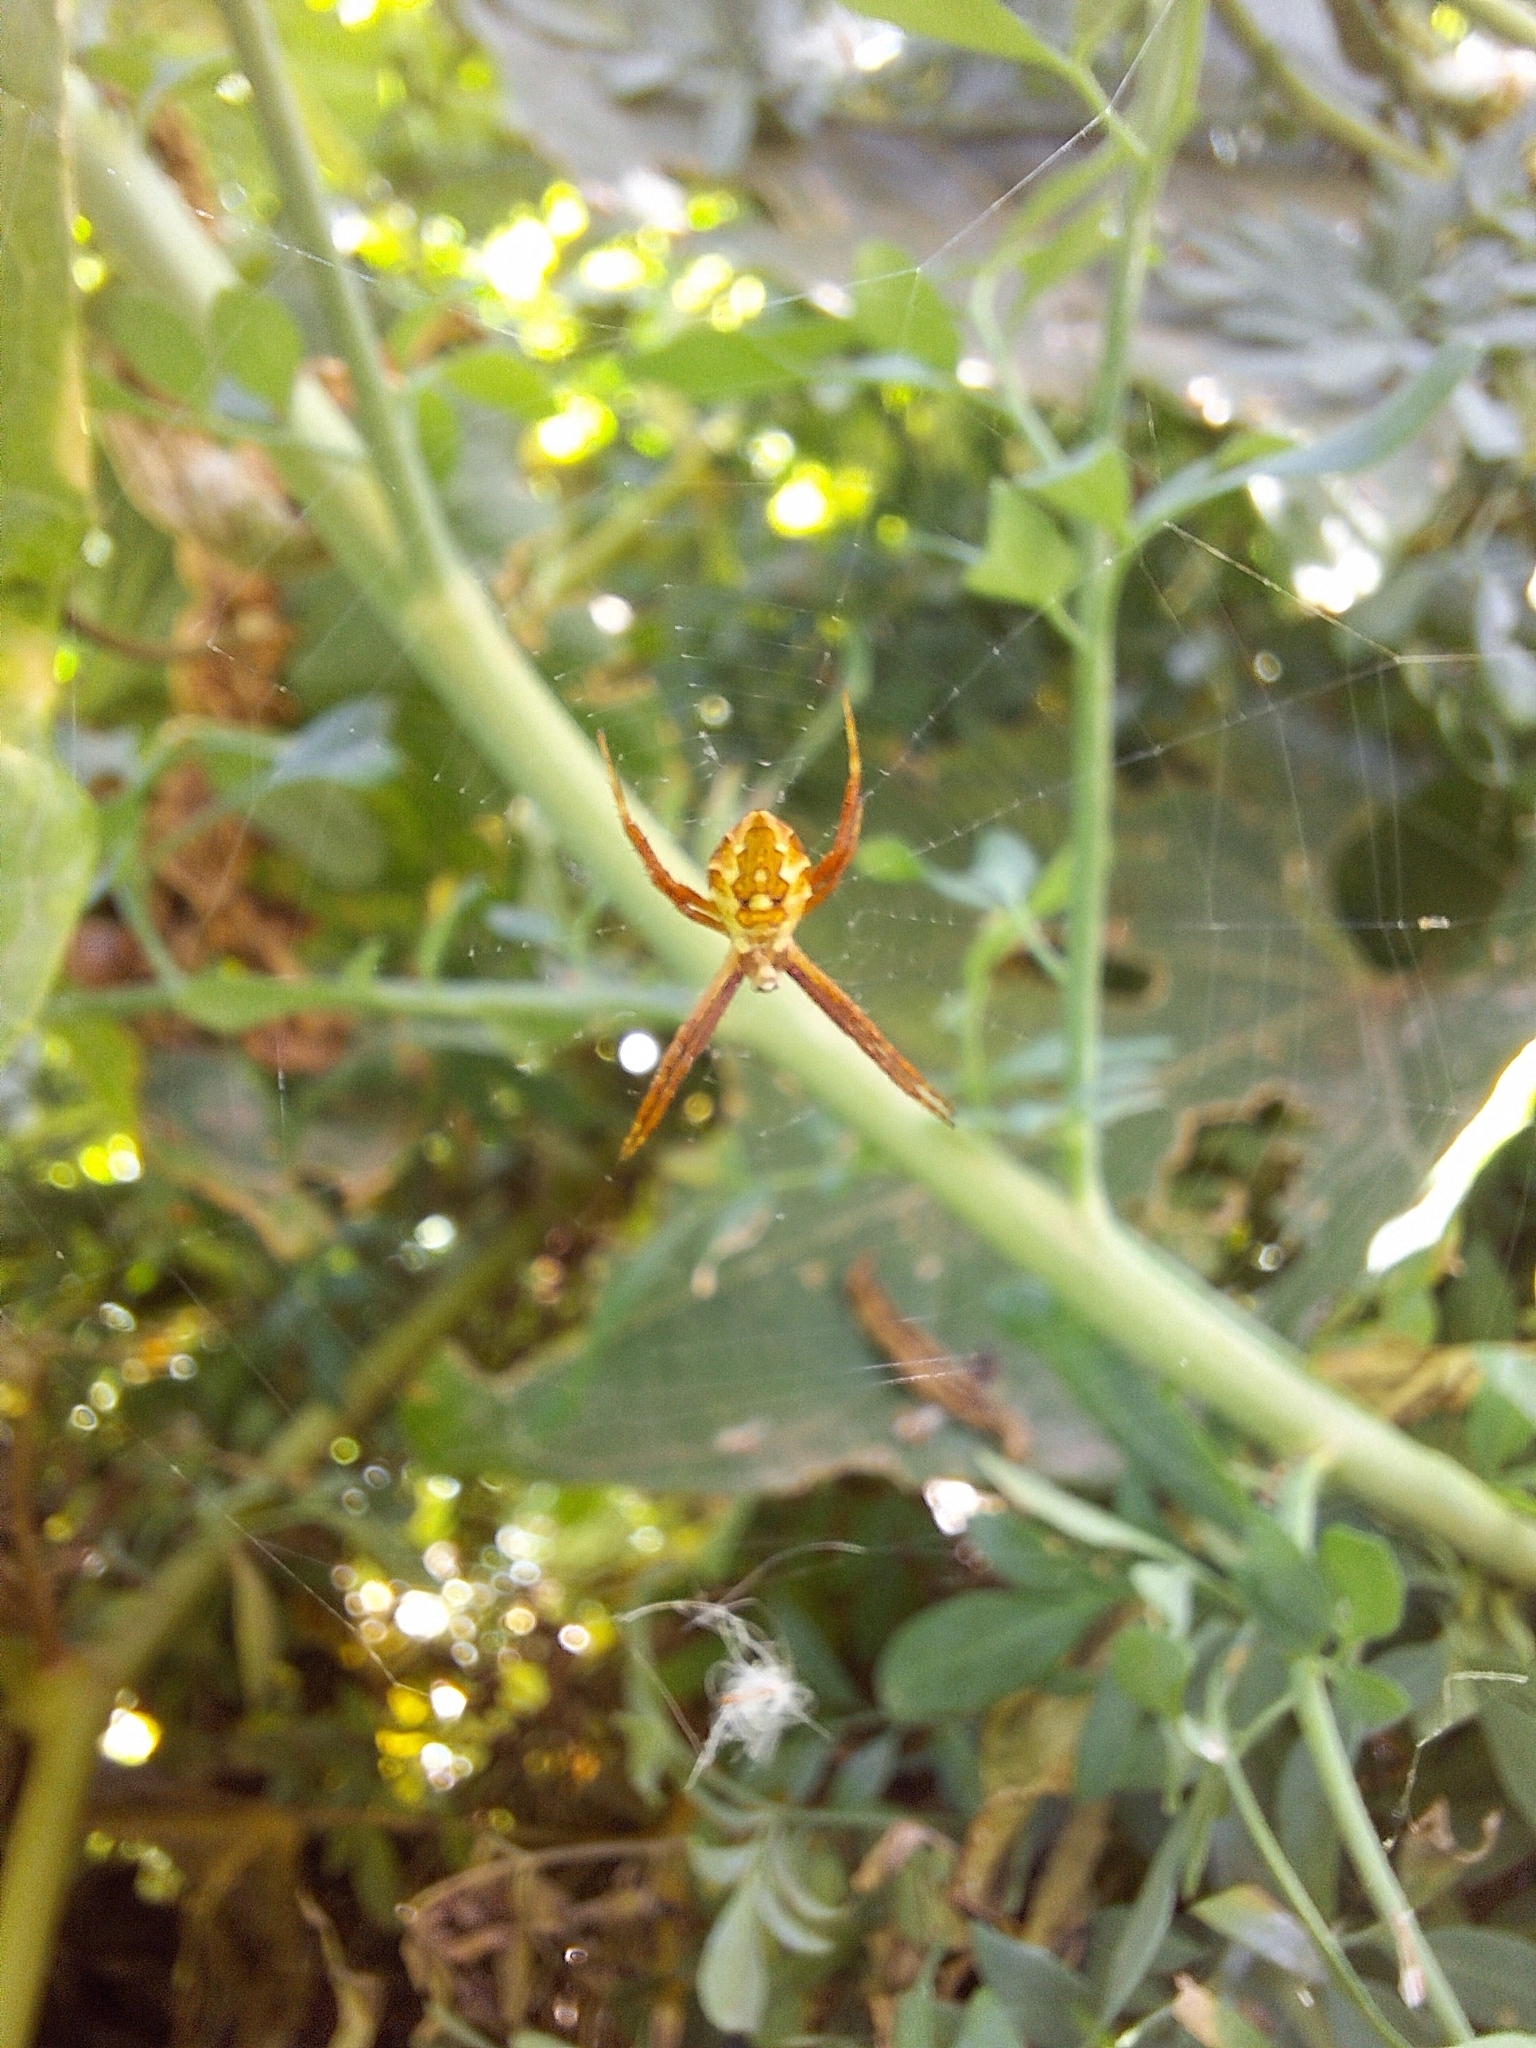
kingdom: Animalia
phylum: Arthropoda
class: Arachnida
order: Araneae
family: Araneidae
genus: Argiope
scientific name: Argiope argentata
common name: Orb weavers
